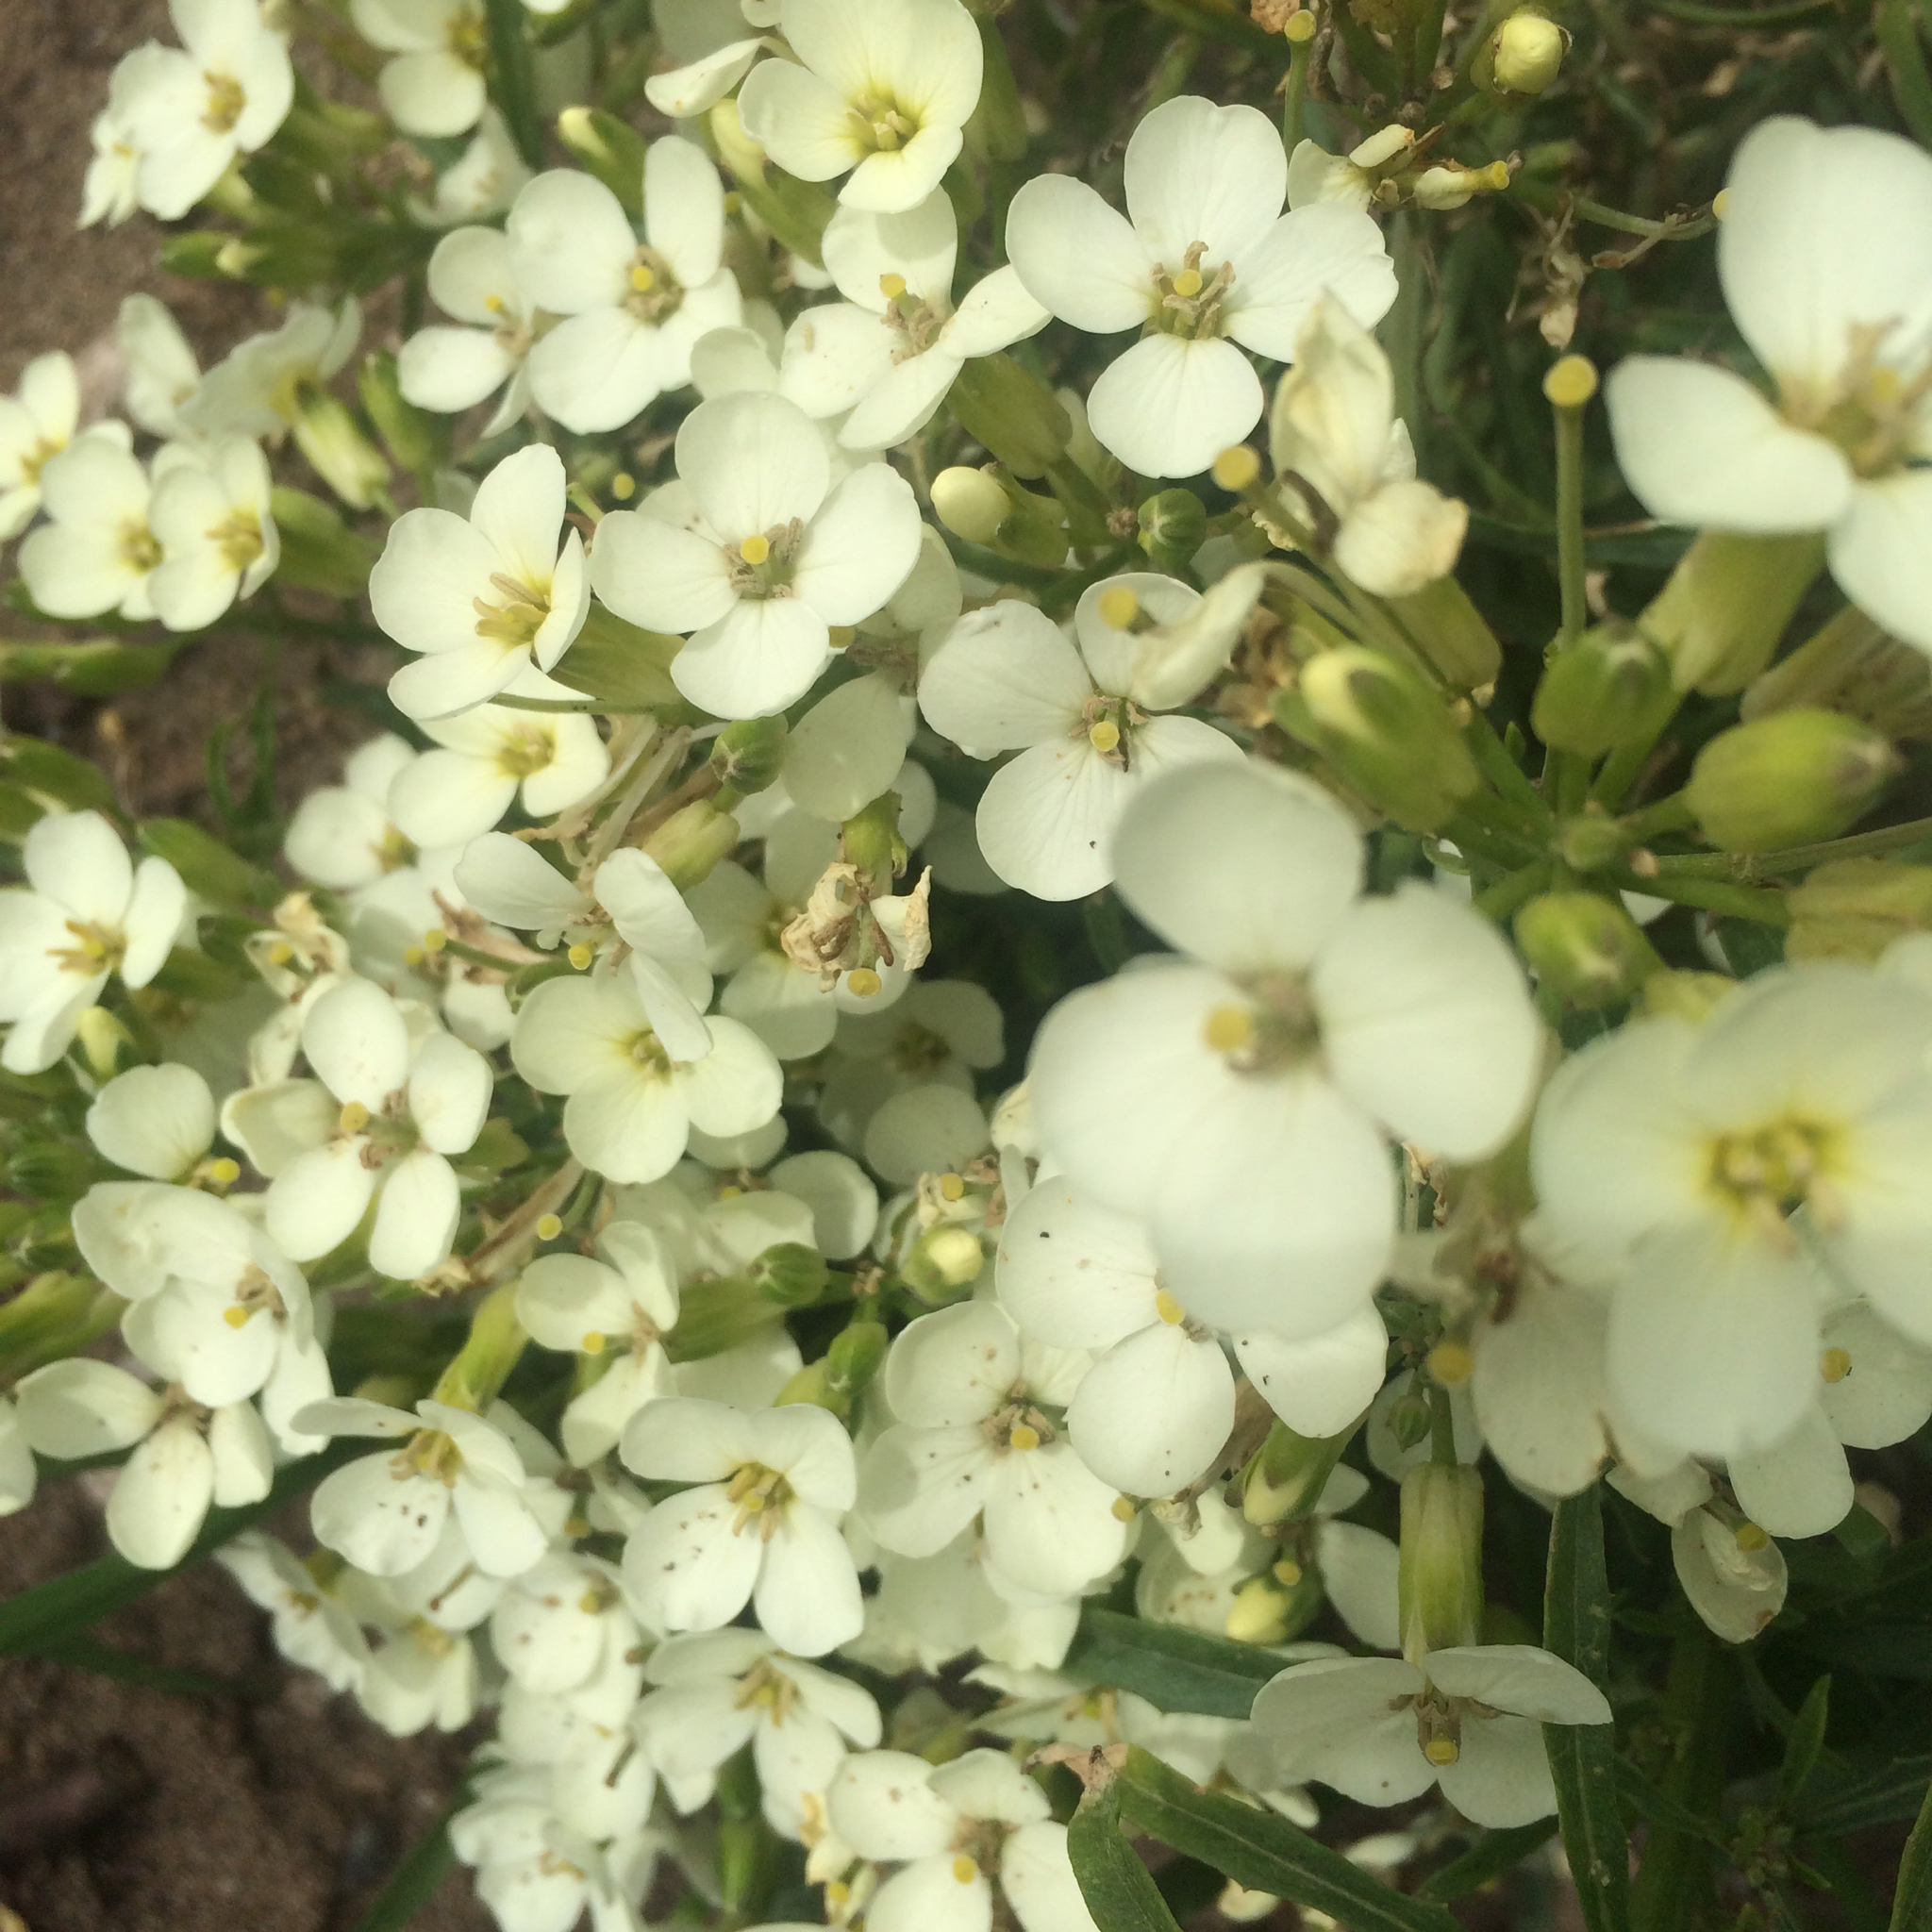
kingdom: Plantae
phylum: Tracheophyta
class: Magnoliopsida
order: Brassicales
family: Brassicaceae
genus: Erysimum
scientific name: Erysimum franciscanum
